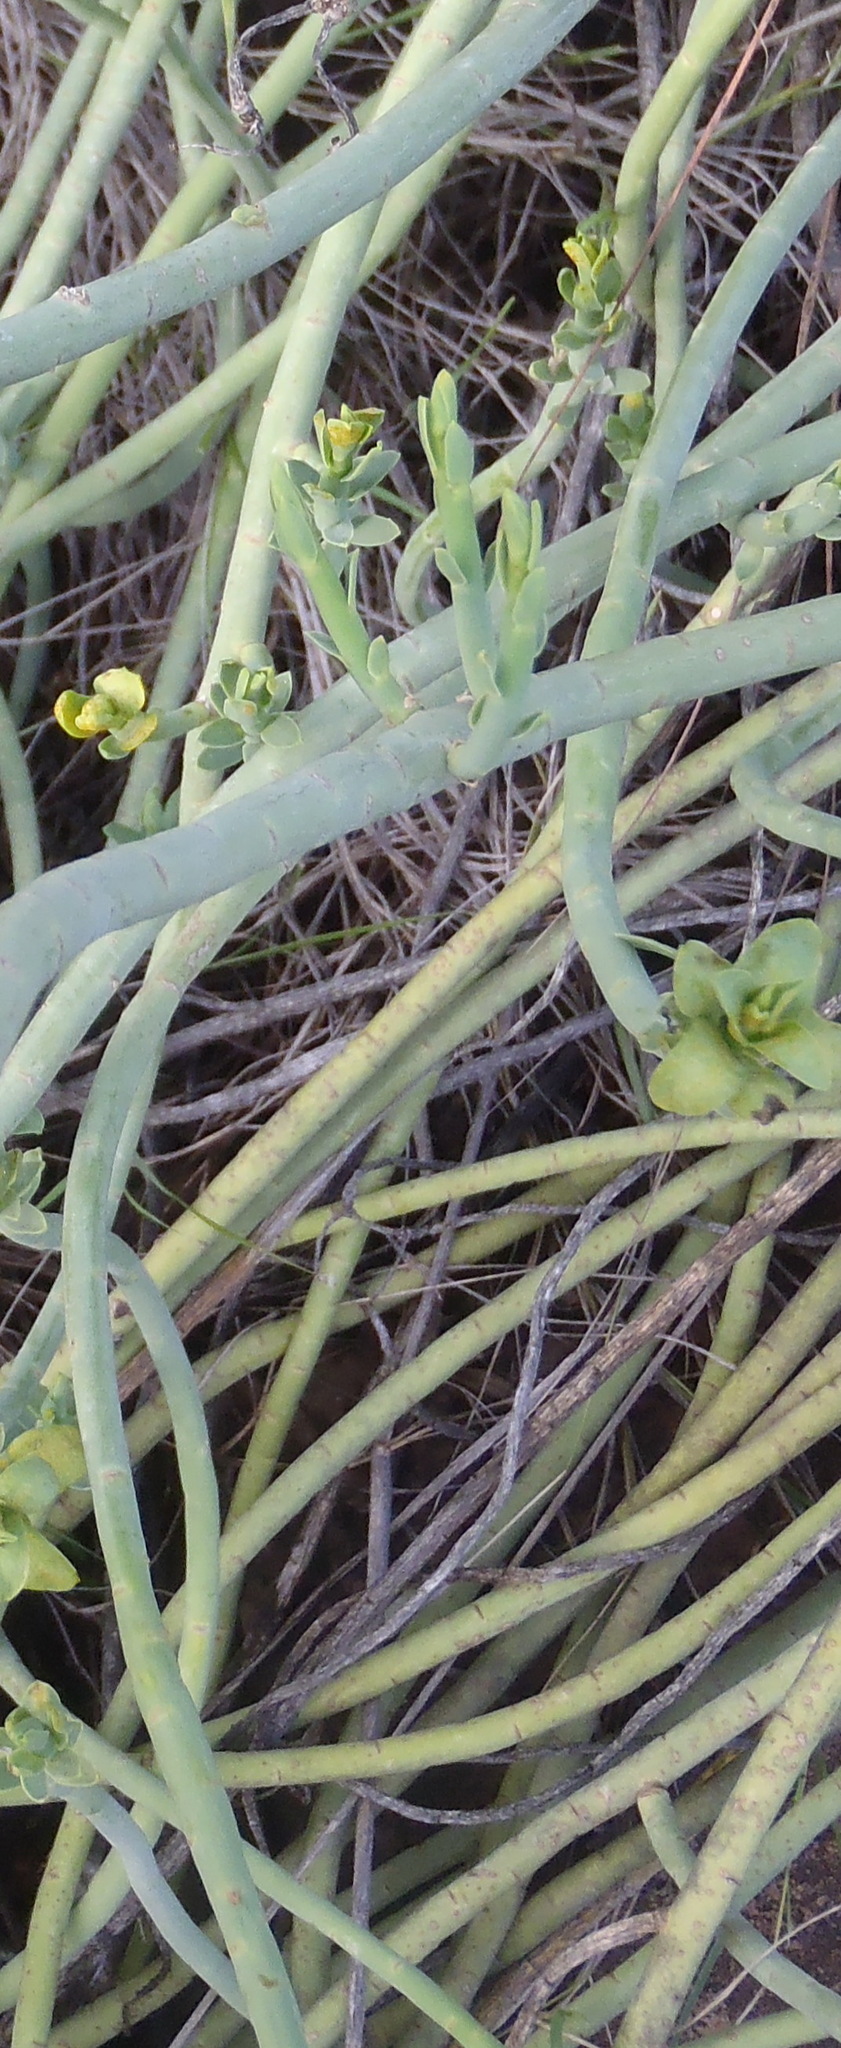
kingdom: Plantae
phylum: Tracheophyta
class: Magnoliopsida
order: Malpighiales
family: Euphorbiaceae
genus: Euphorbia
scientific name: Euphorbia mauritanica
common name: Jackal's-food
